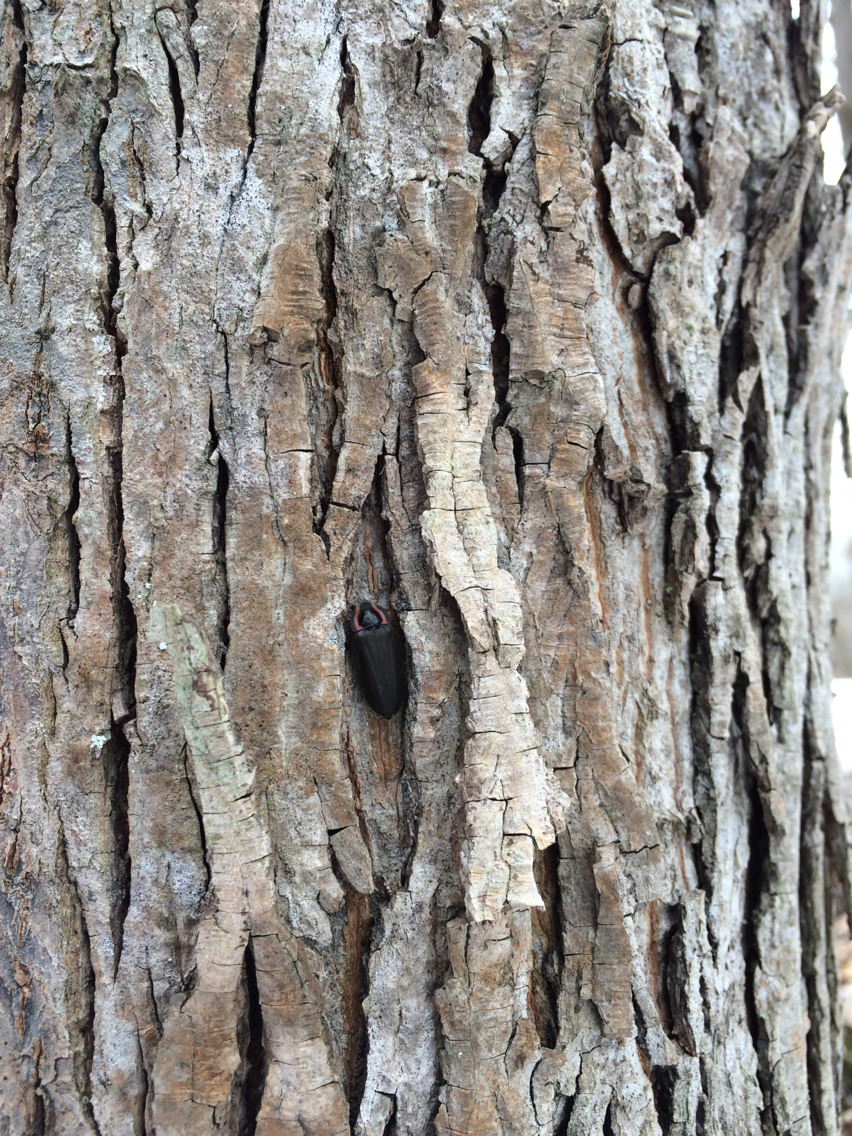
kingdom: Animalia
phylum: Arthropoda
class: Insecta
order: Coleoptera
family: Lampyridae
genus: Photinus
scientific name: Photinus corrusca
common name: Winter firefly
